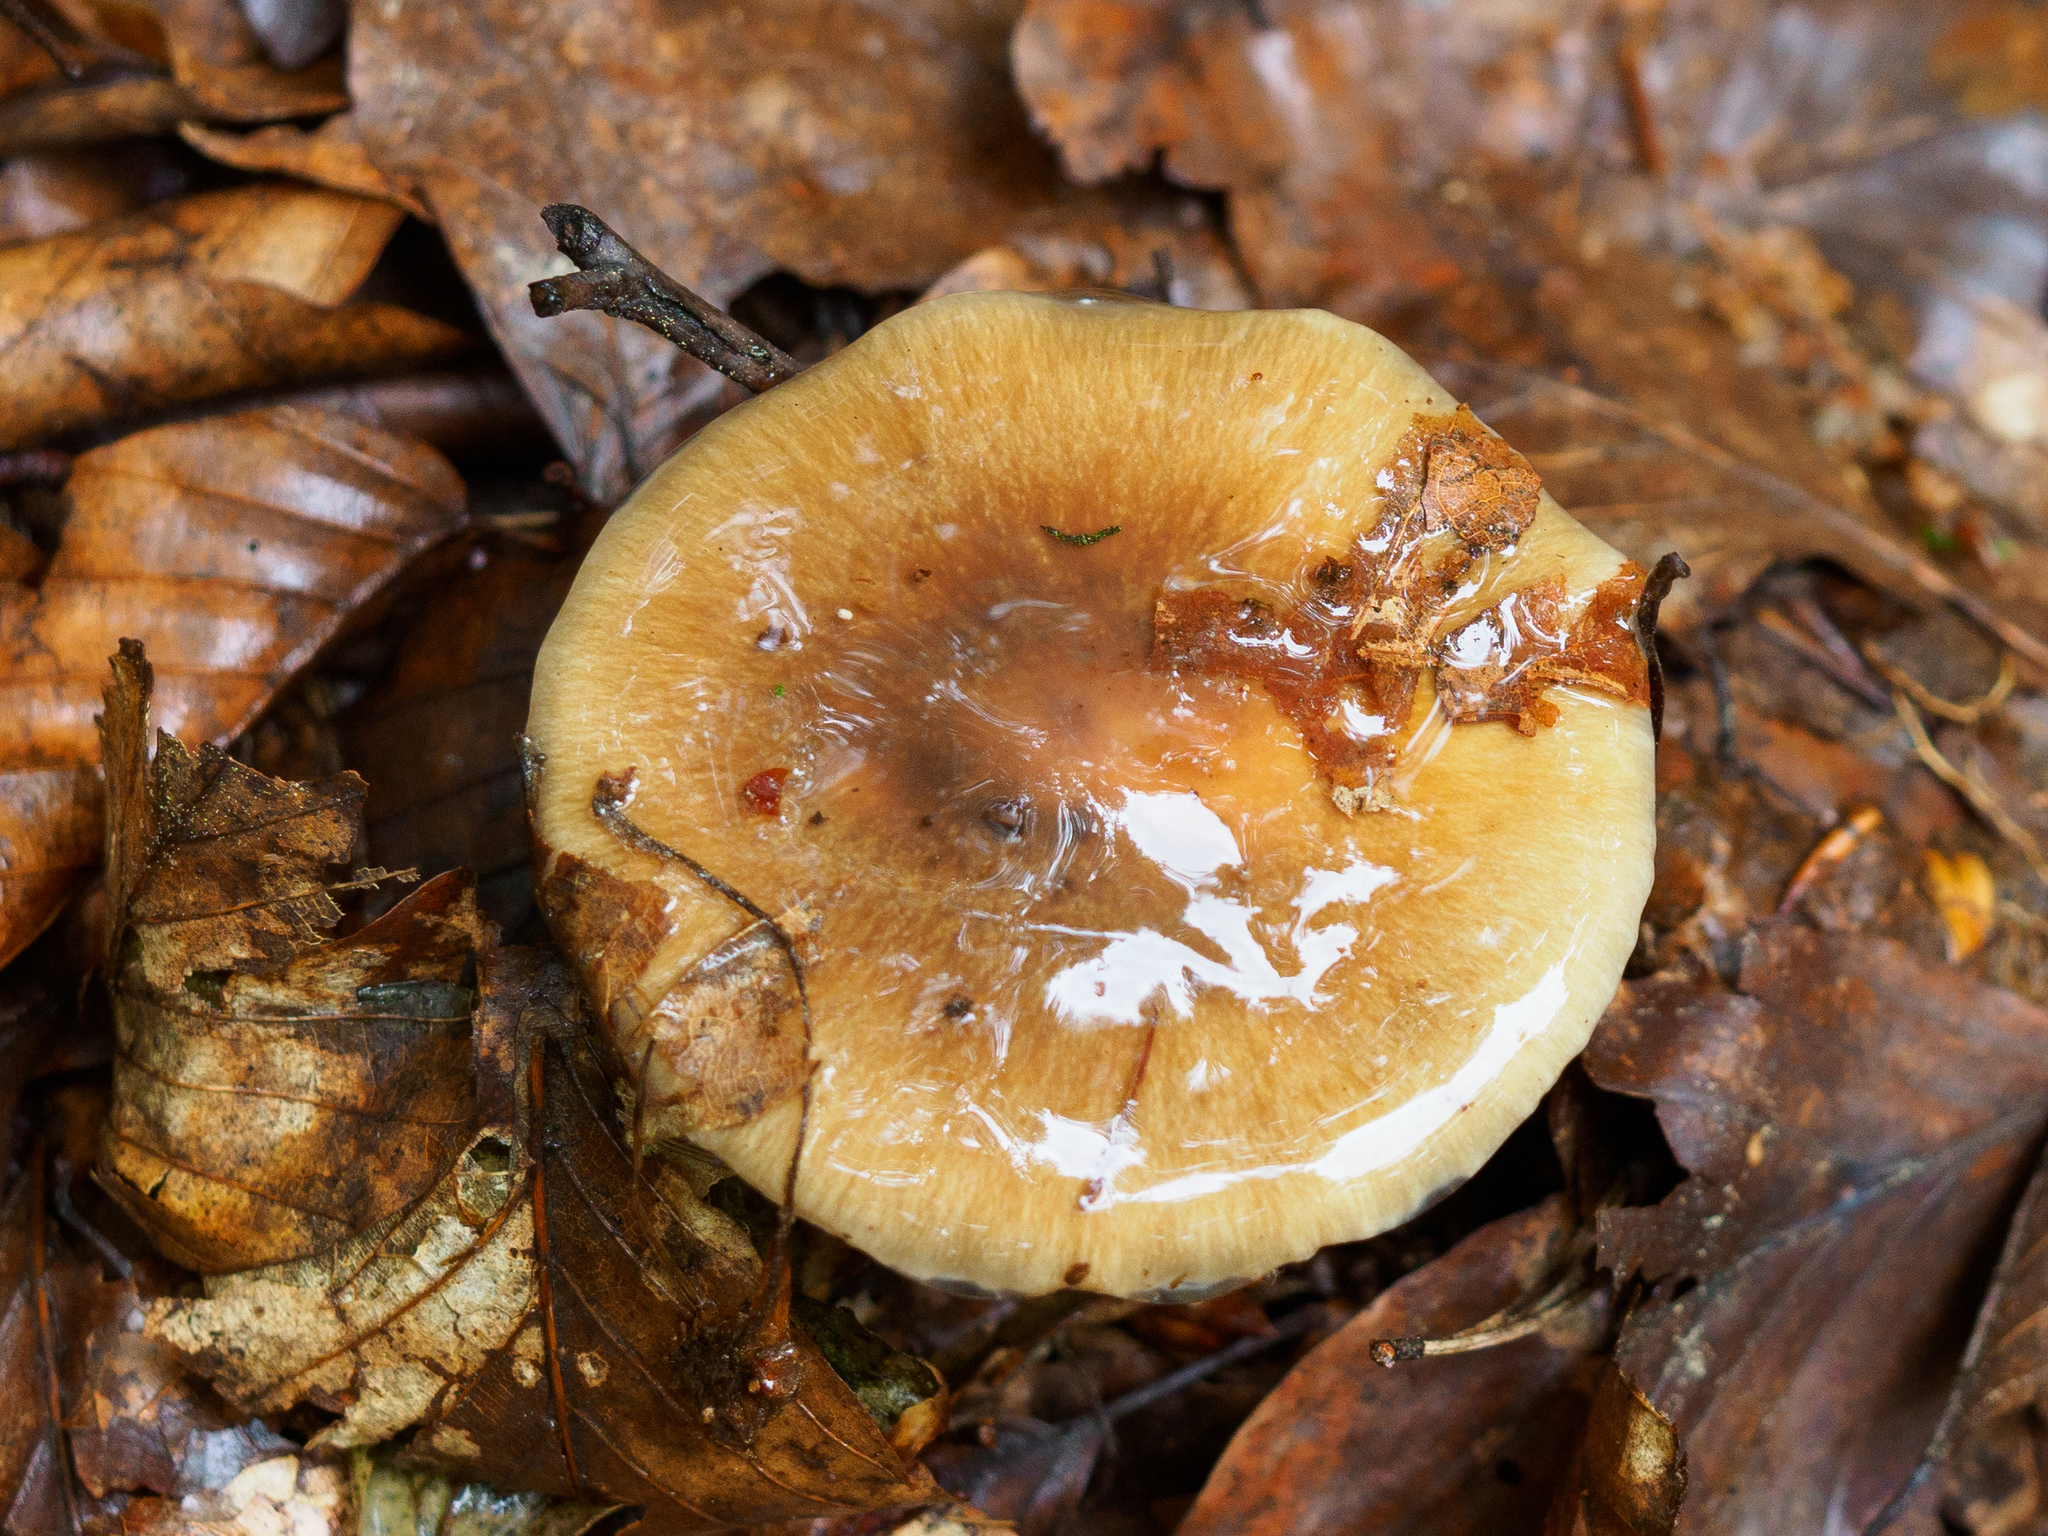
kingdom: Fungi
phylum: Basidiomycota
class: Agaricomycetes
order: Agaricales
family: Cortinariaceae
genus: Cortinarius
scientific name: Cortinarius livido-ochraceus
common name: Wrinkled webcap
